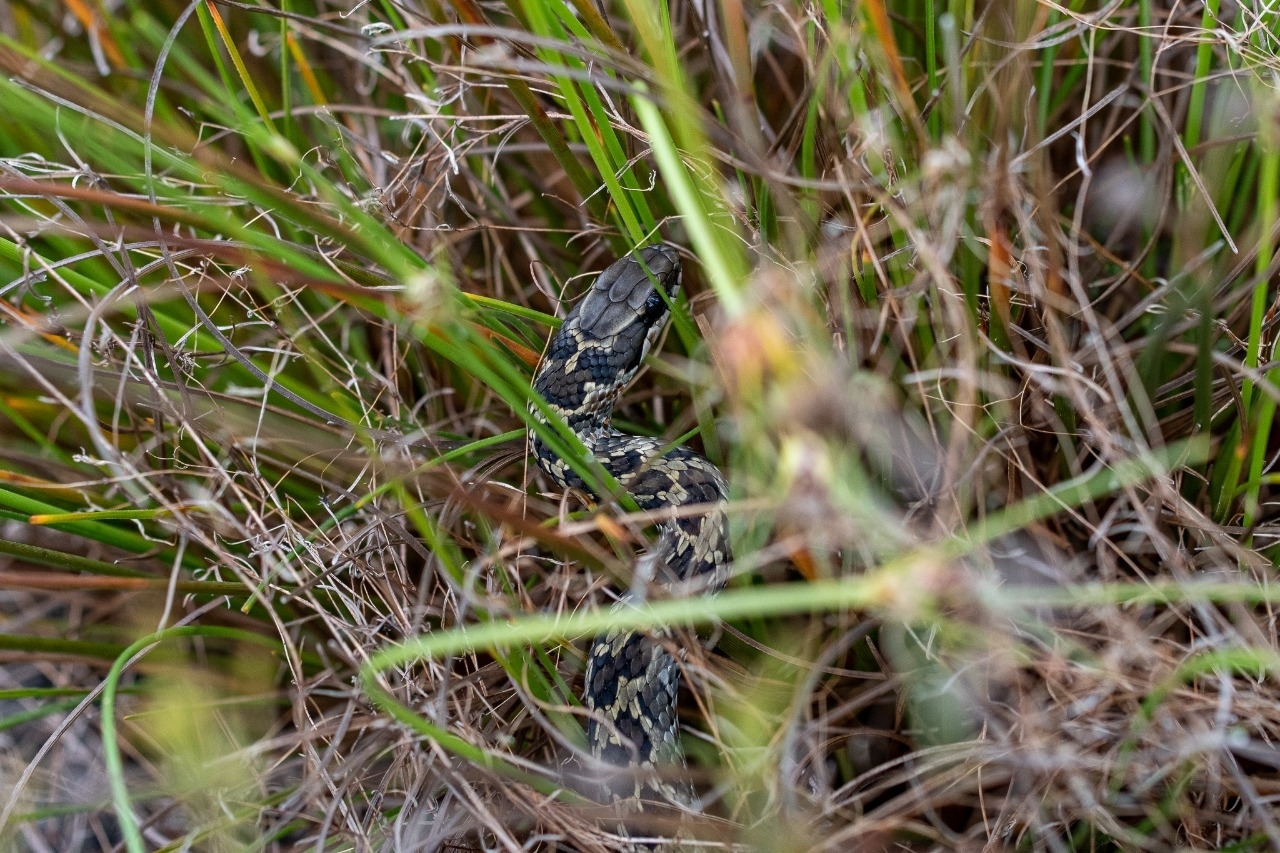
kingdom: Animalia
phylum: Chordata
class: Squamata
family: Psammophiidae
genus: Psammophylax
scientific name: Psammophylax rhombeatus
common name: Rhombic skaapsteker
